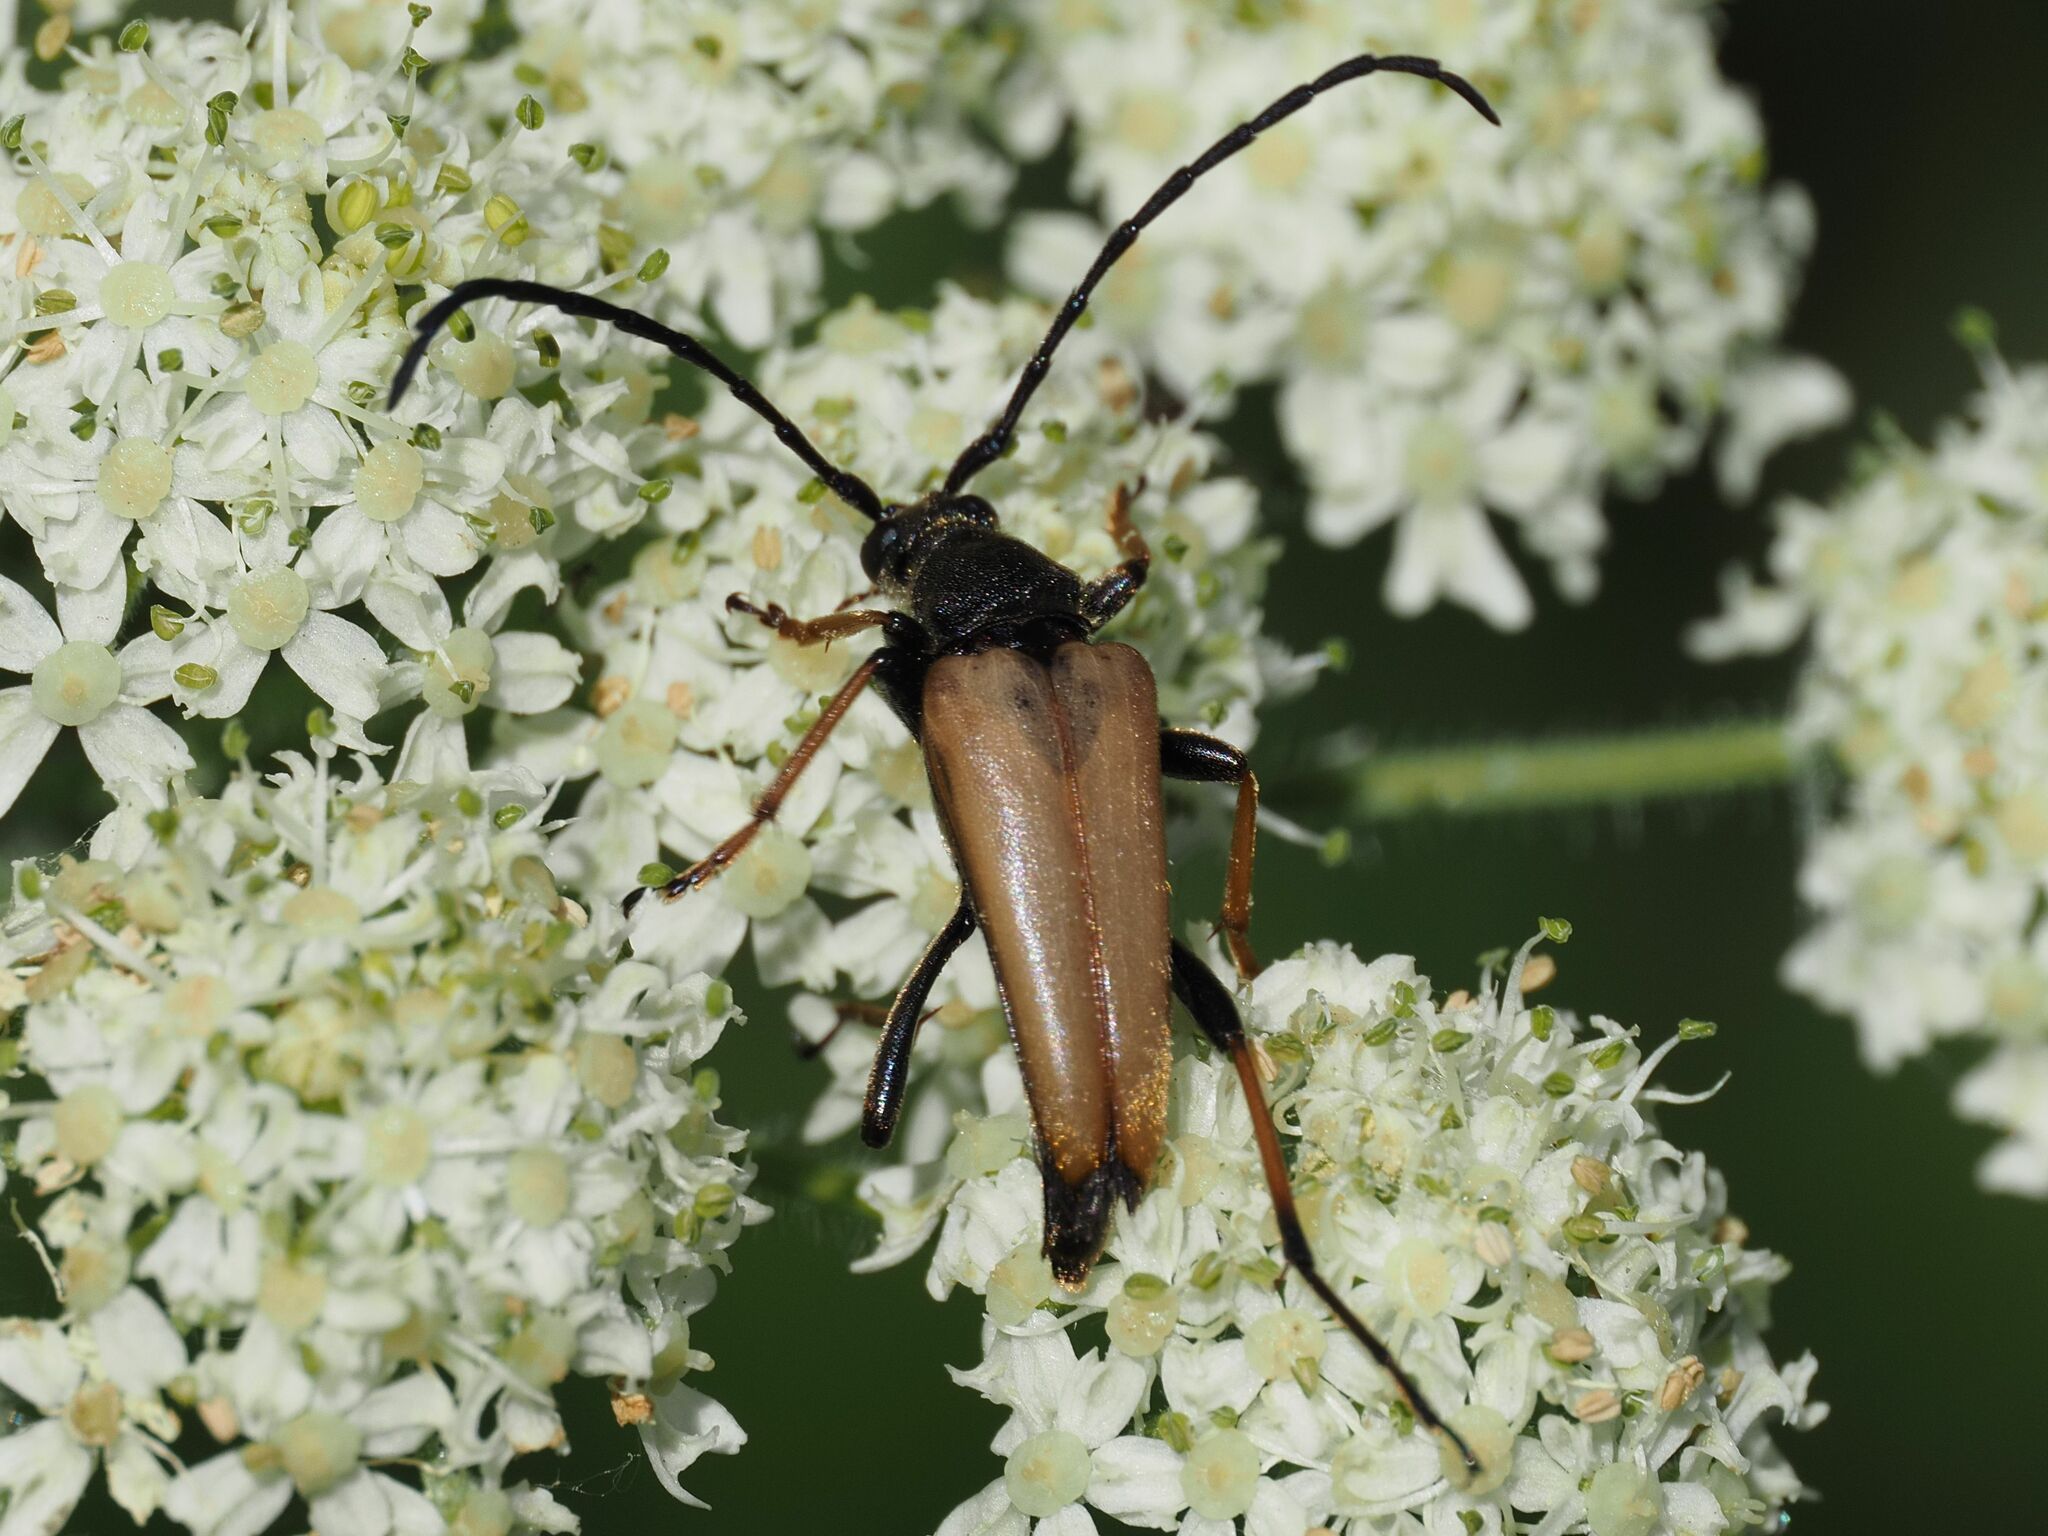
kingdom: Animalia
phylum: Arthropoda
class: Insecta
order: Coleoptera
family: Cerambycidae
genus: Stictoleptura
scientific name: Stictoleptura rubra
